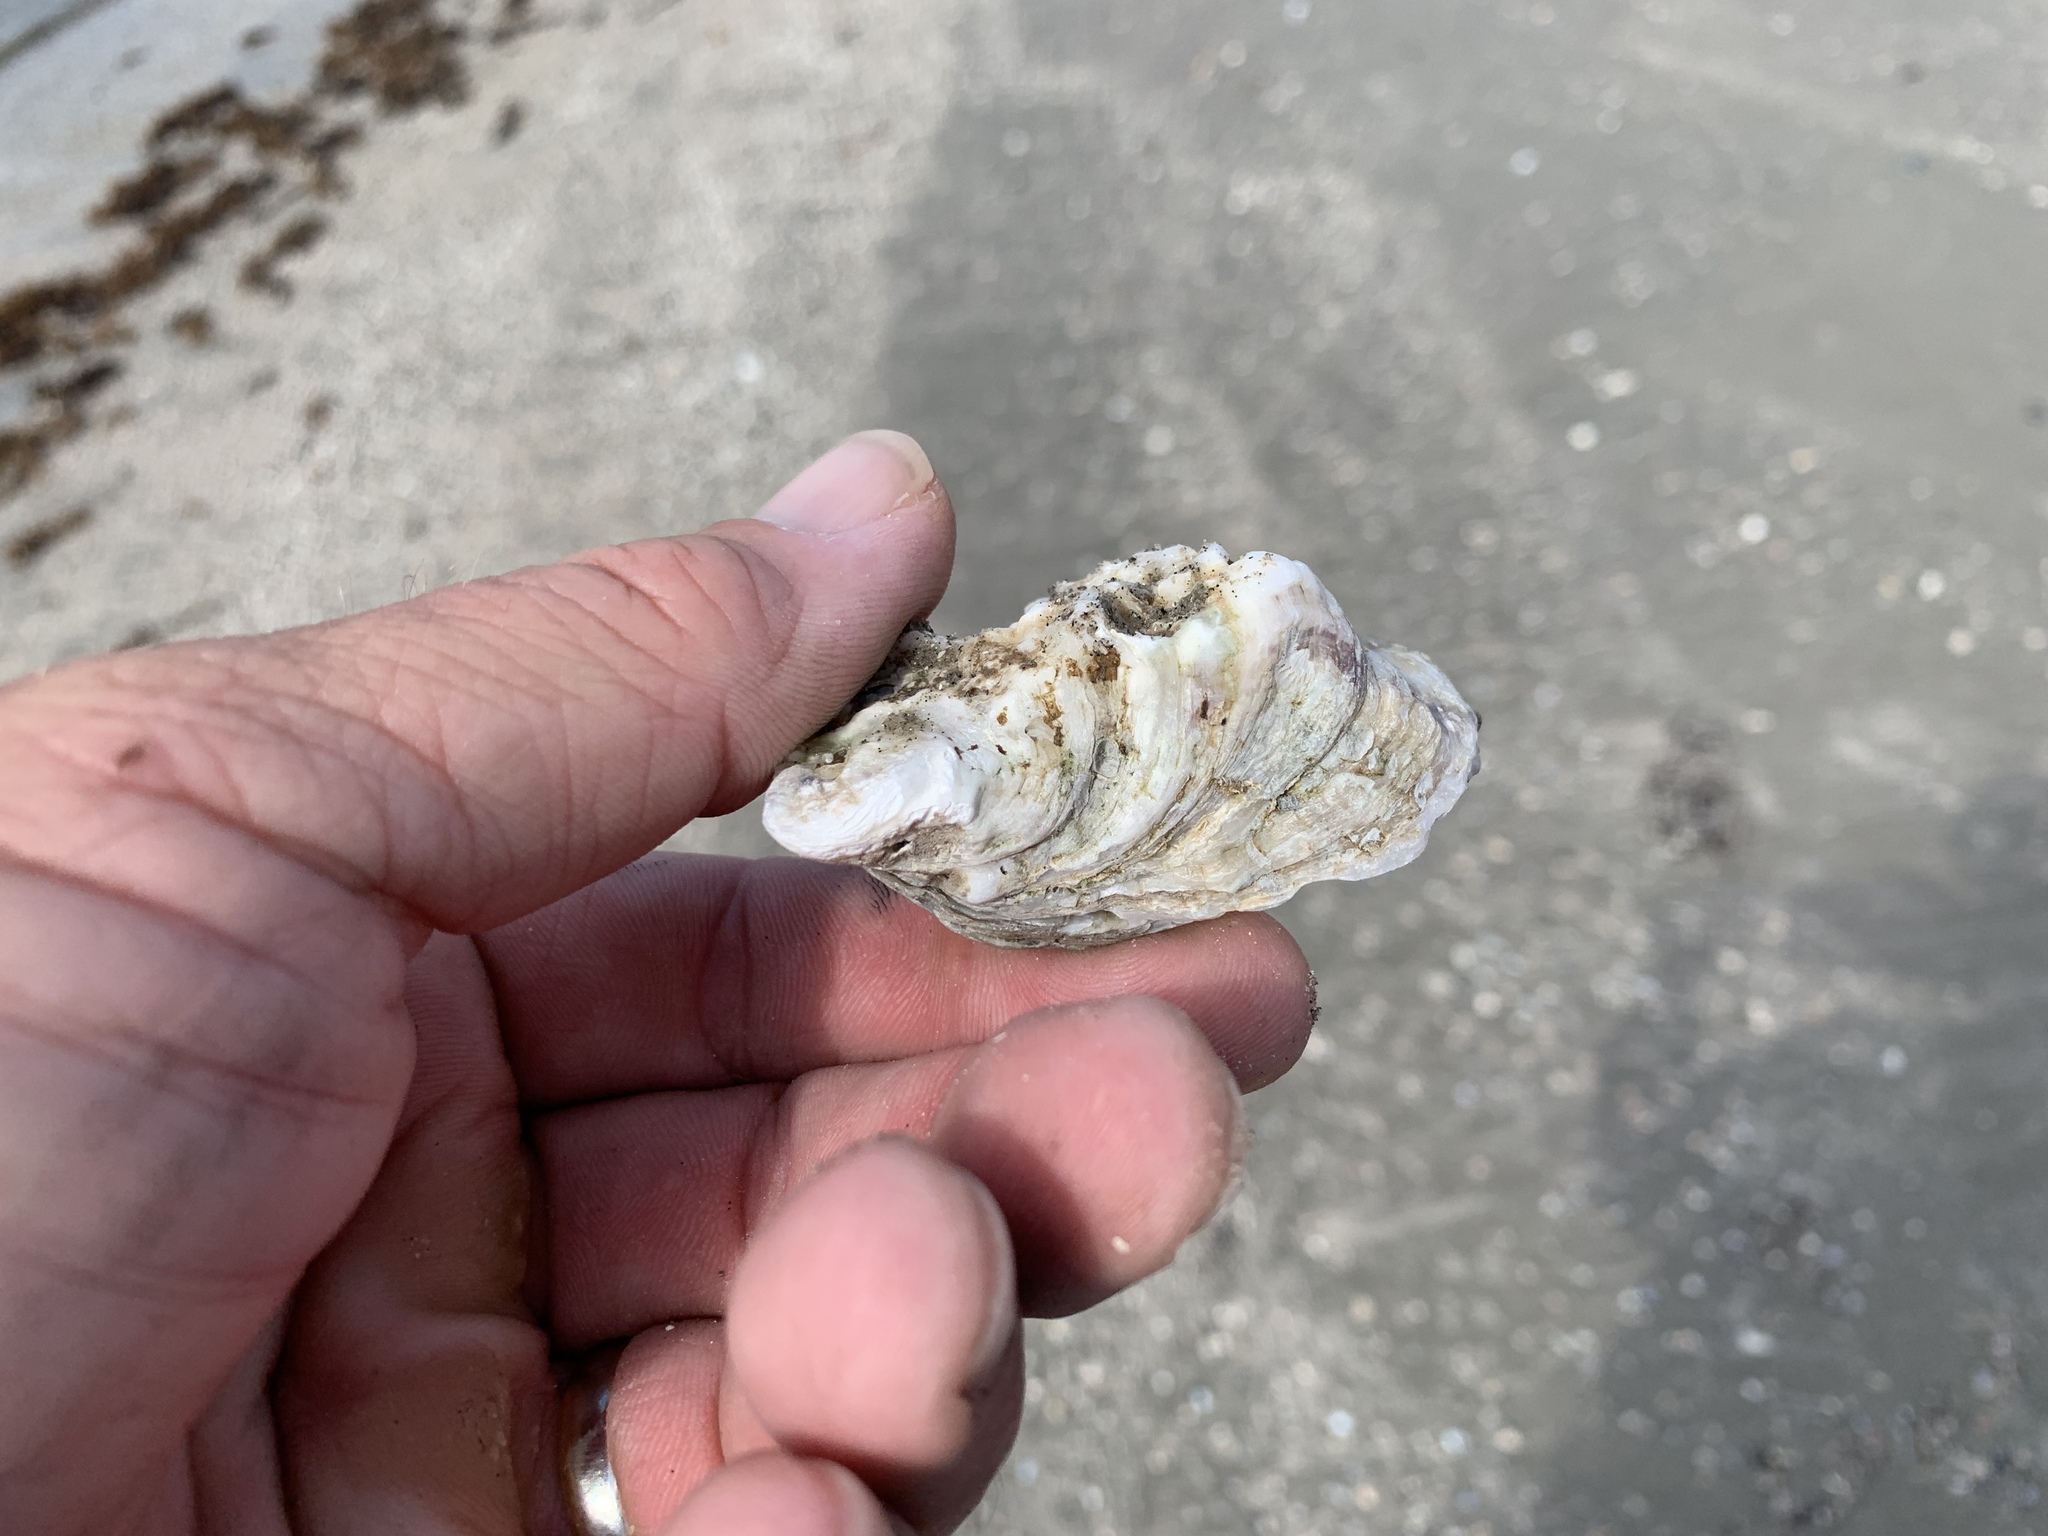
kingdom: Animalia
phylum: Mollusca
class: Bivalvia
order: Ostreida
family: Ostreidae
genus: Crassostrea
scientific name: Crassostrea virginica
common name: American oyster
